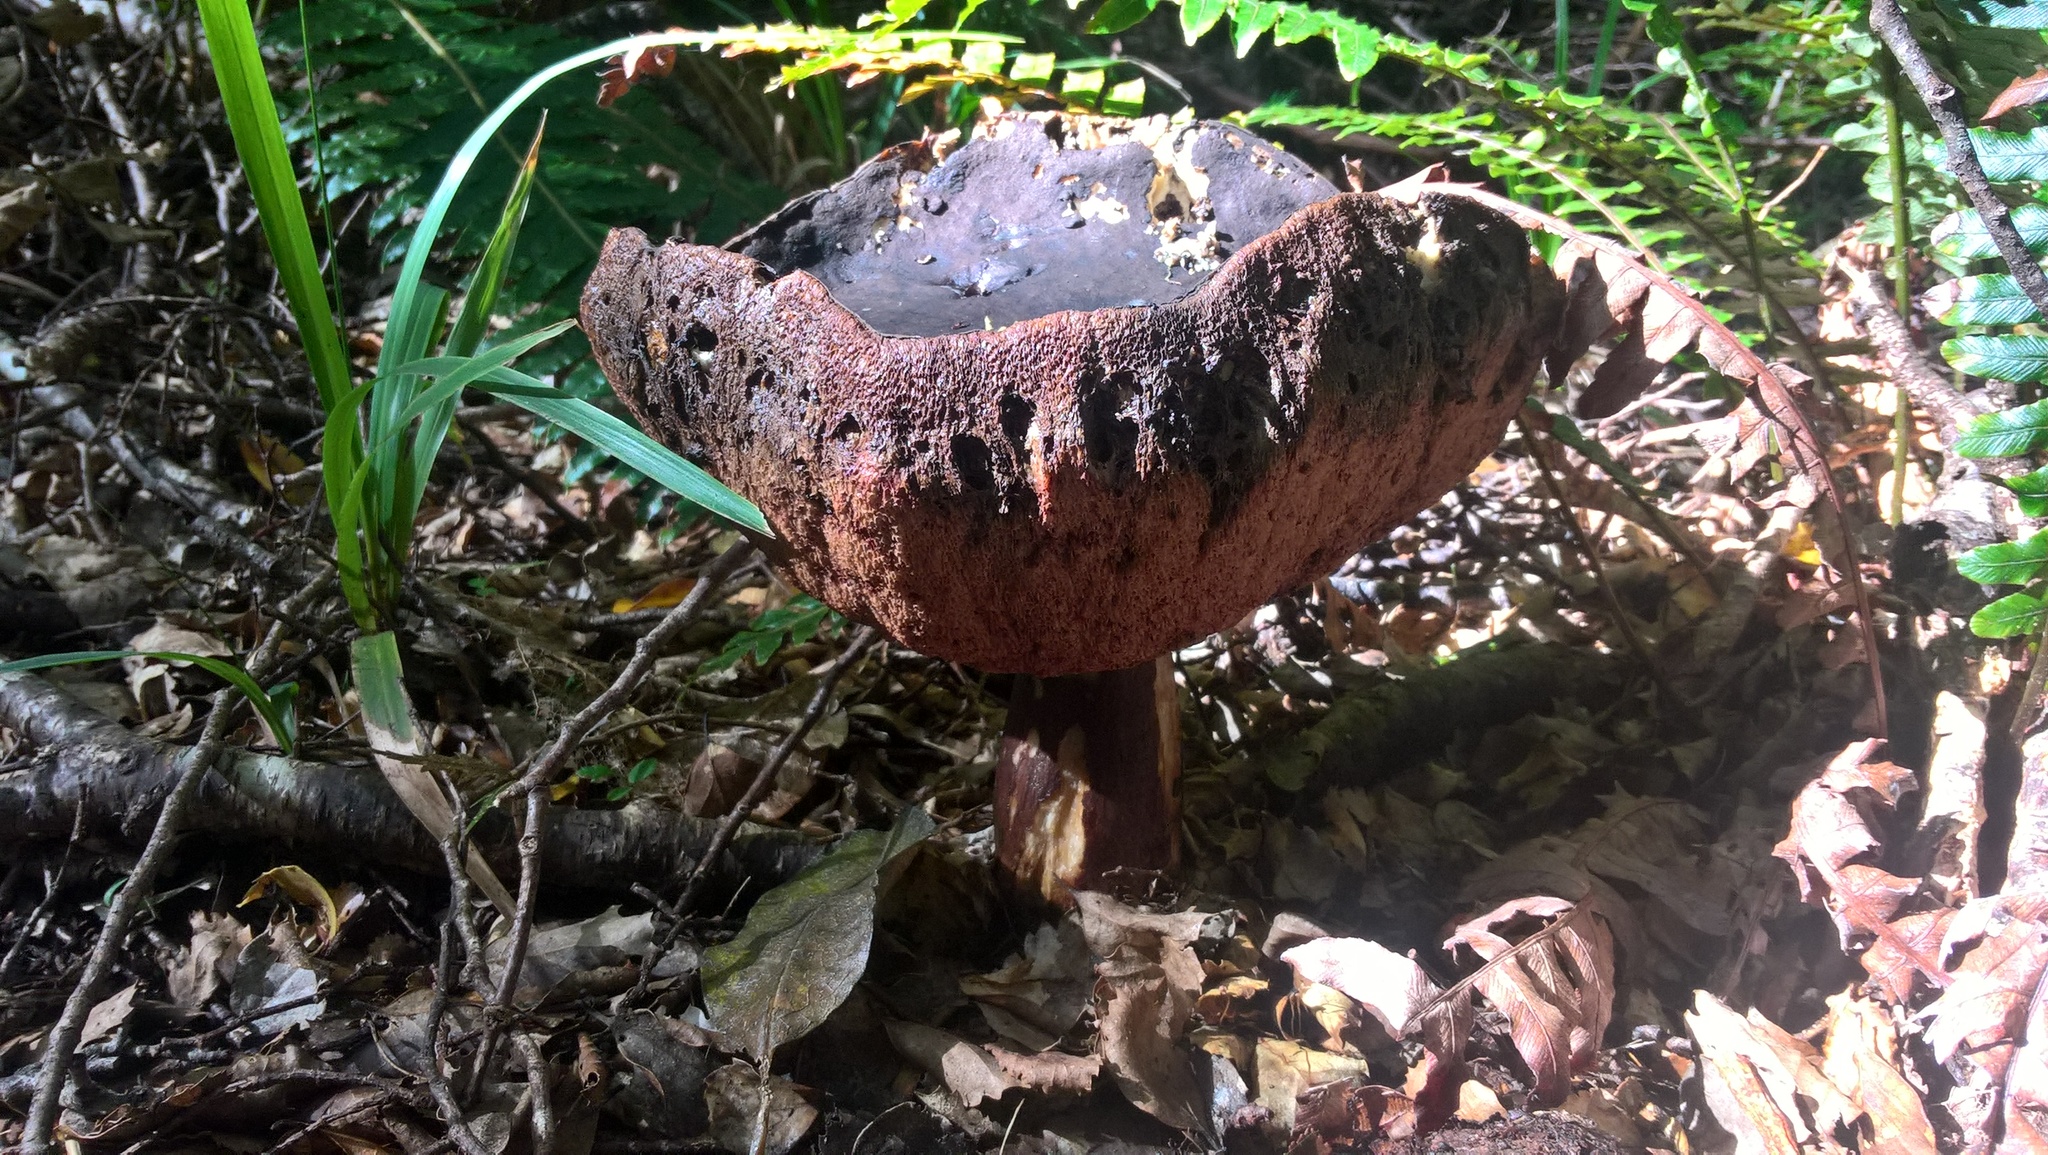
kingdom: Fungi
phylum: Basidiomycota
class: Agaricomycetes
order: Boletales
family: Boletaceae
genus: Porphyrellus
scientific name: Porphyrellus formosus
